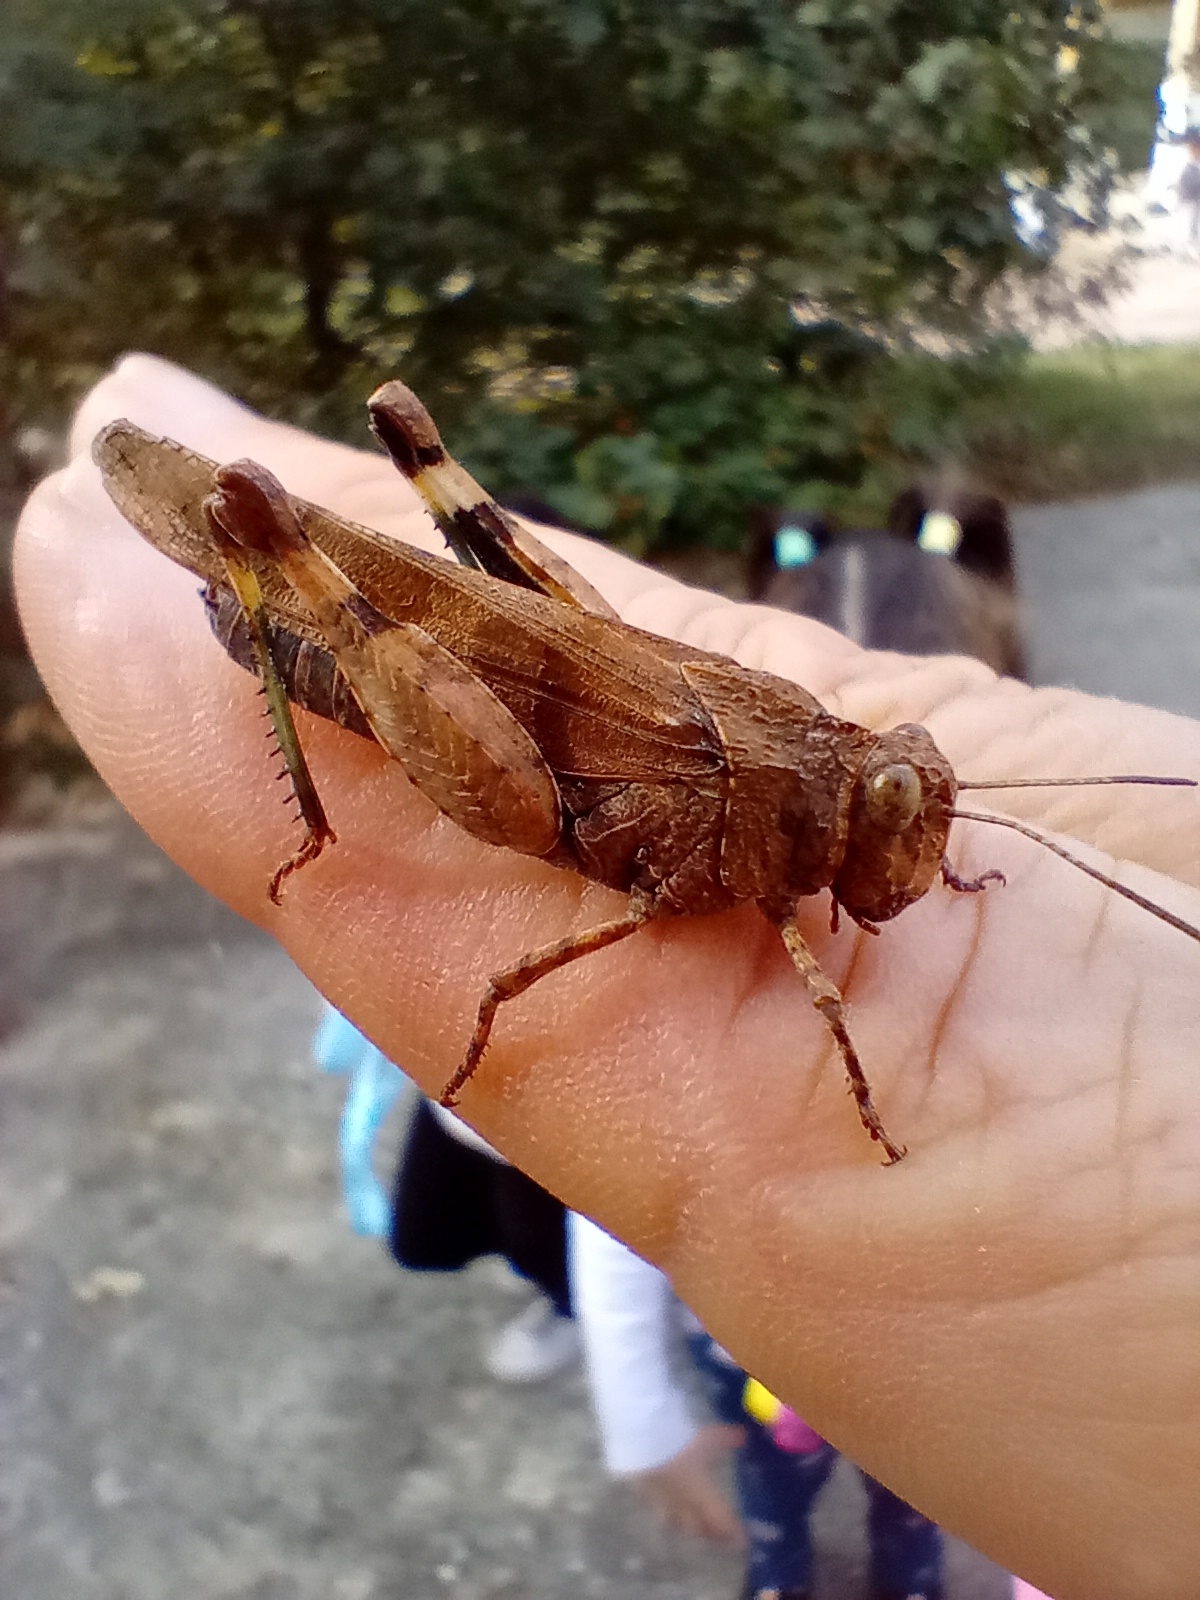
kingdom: Animalia
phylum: Arthropoda
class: Insecta
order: Orthoptera
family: Acrididae
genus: Oedipoda
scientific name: Oedipoda caerulescens
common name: Blue-winged grasshopper
